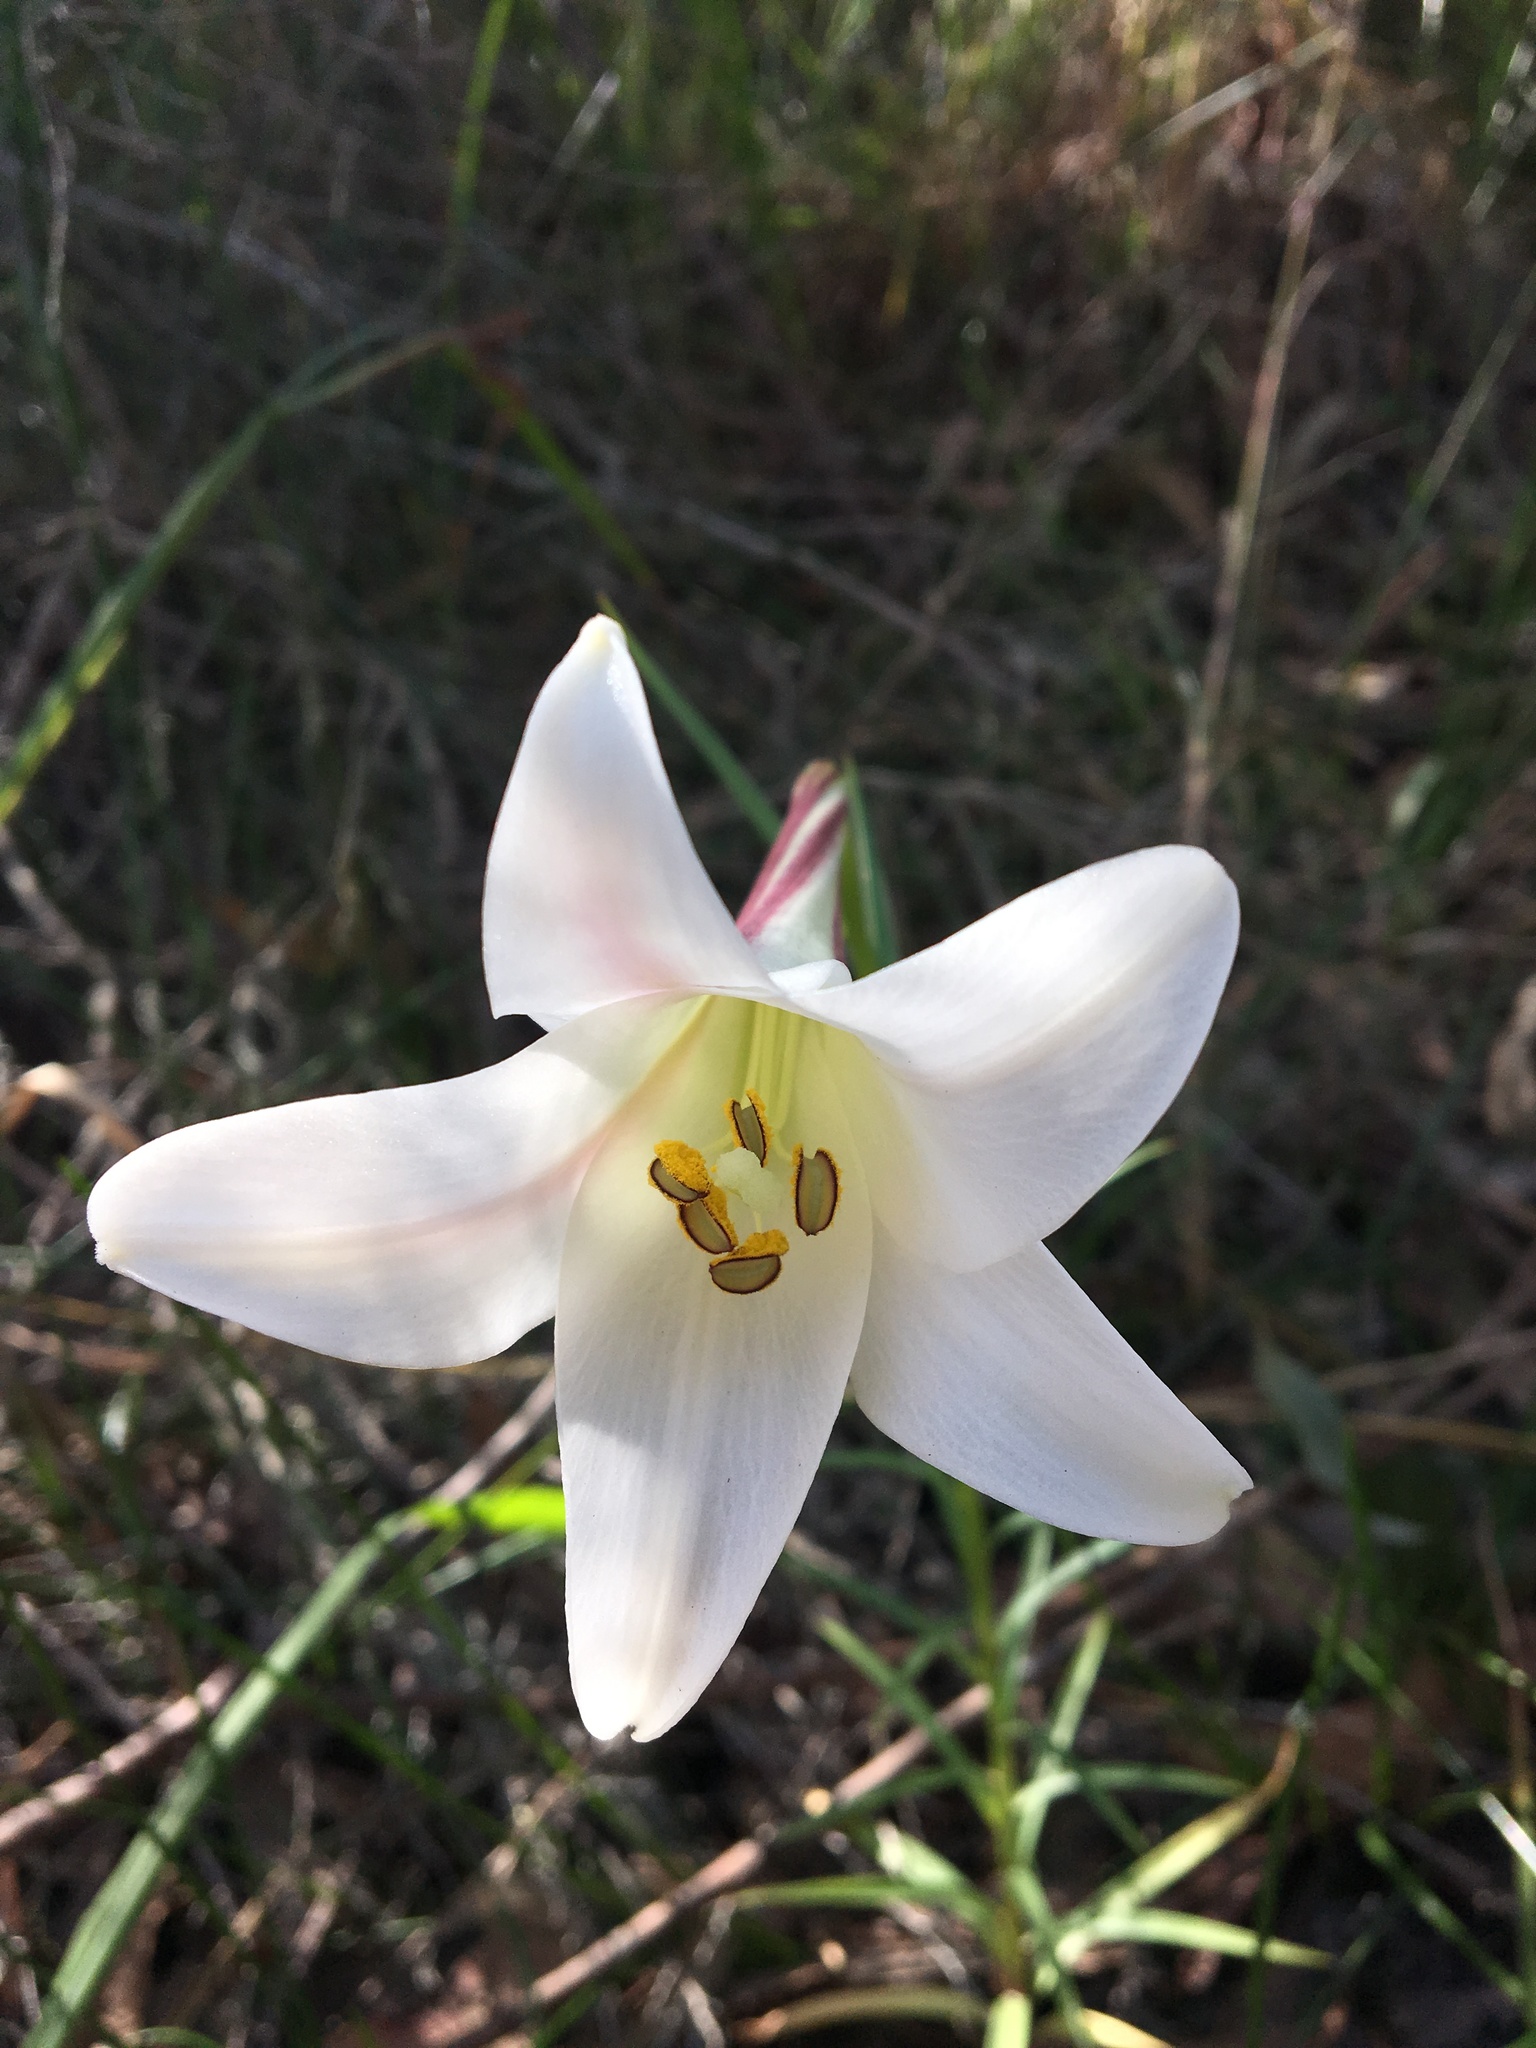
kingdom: Plantae
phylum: Tracheophyta
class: Liliopsida
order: Liliales
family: Liliaceae
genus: Lilium
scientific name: Lilium formosanum
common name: Formosa lily
